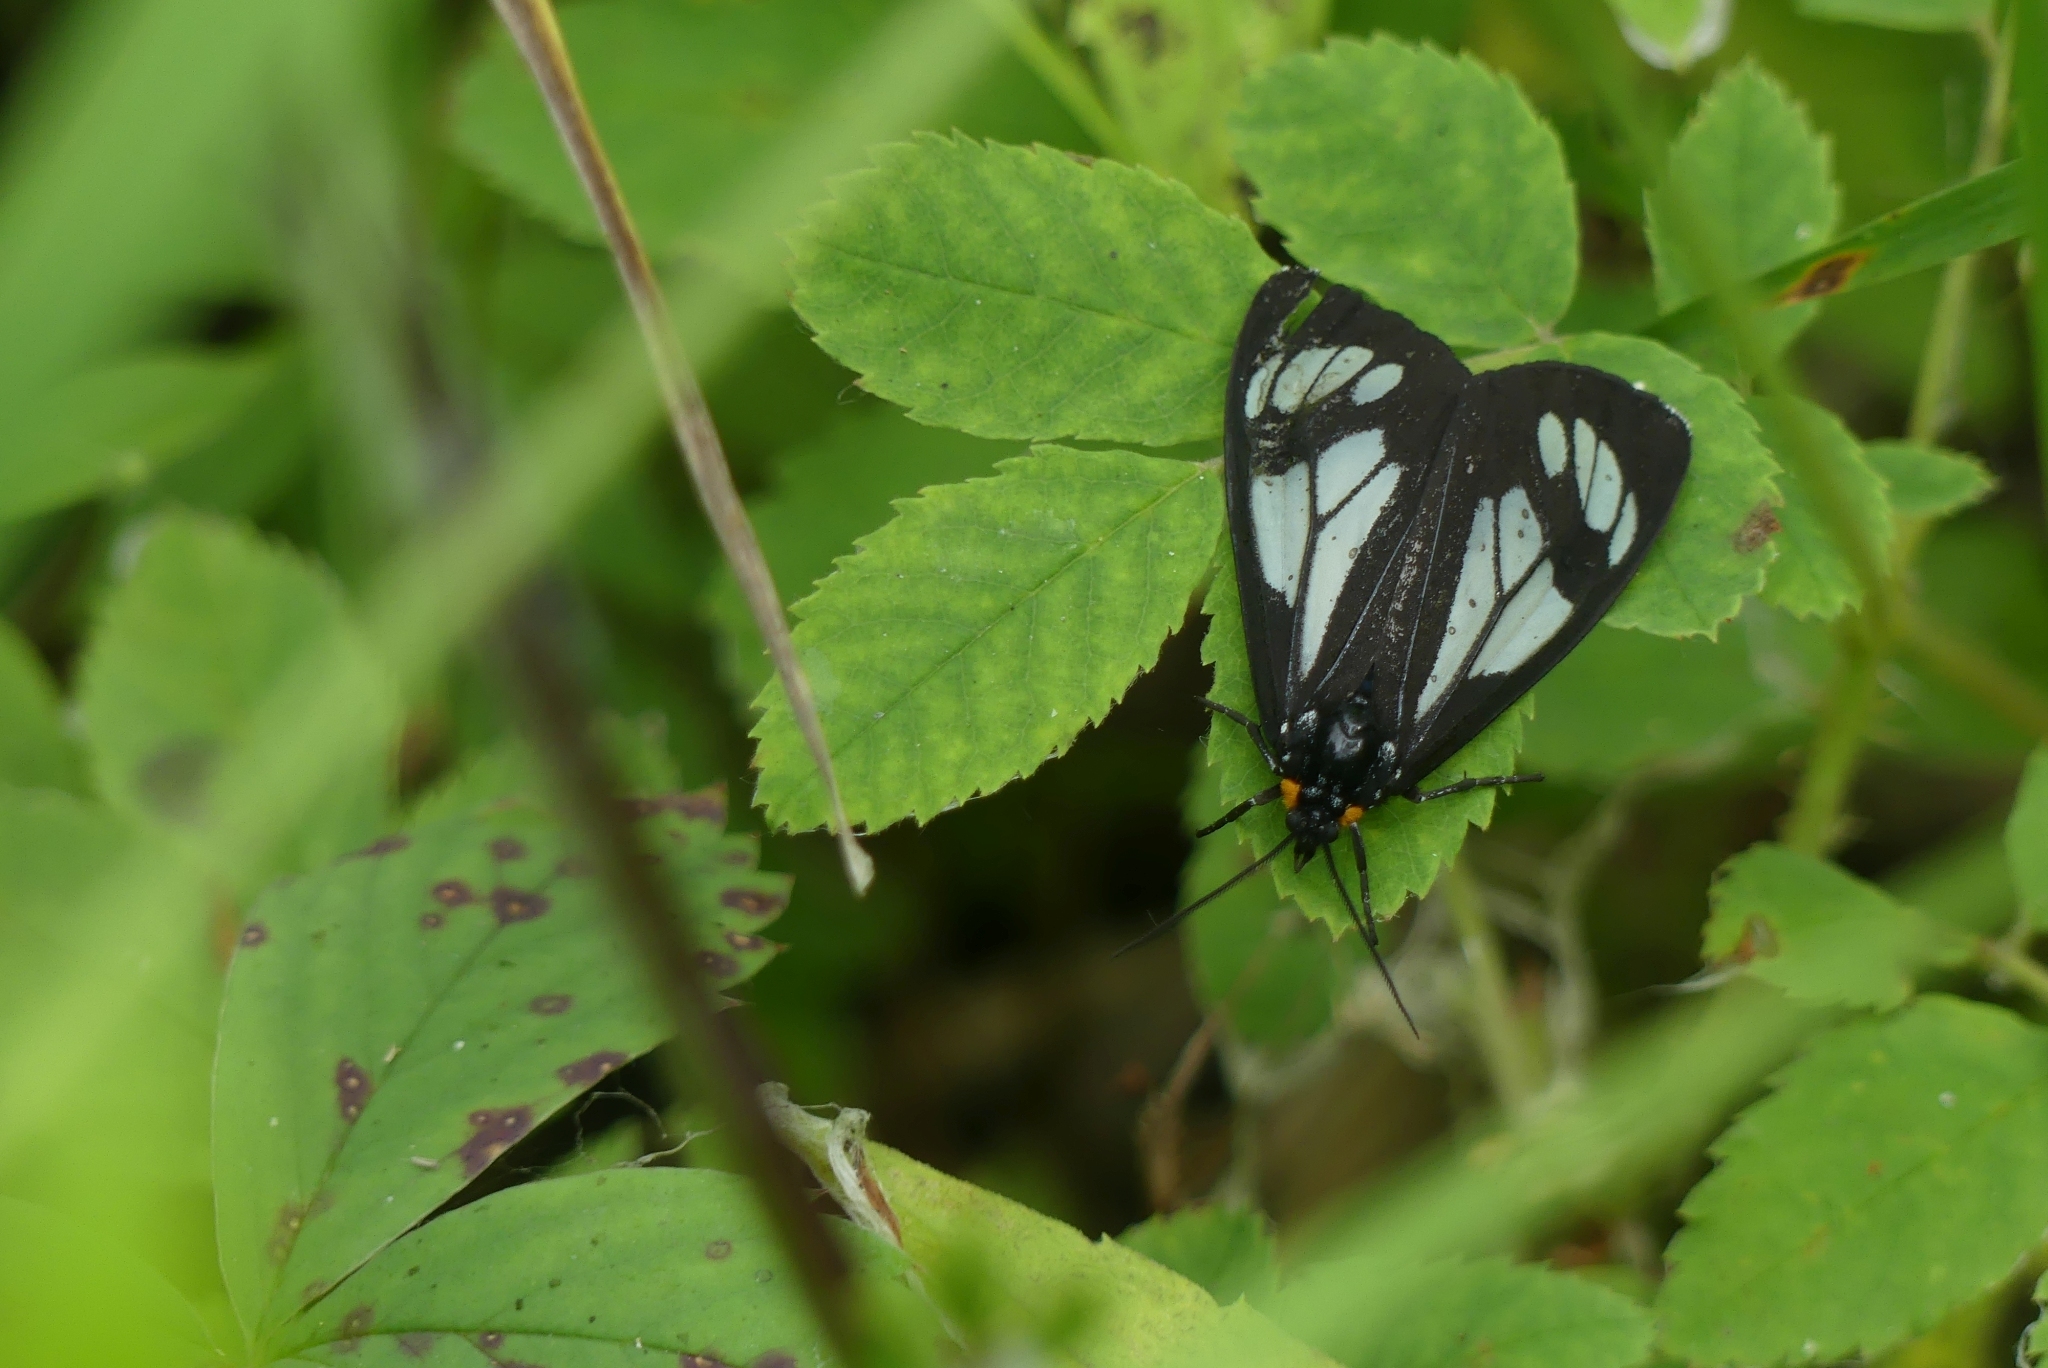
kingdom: Animalia
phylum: Arthropoda
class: Insecta
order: Lepidoptera
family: Erebidae
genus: Gnophaela
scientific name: Gnophaela vermiculata
